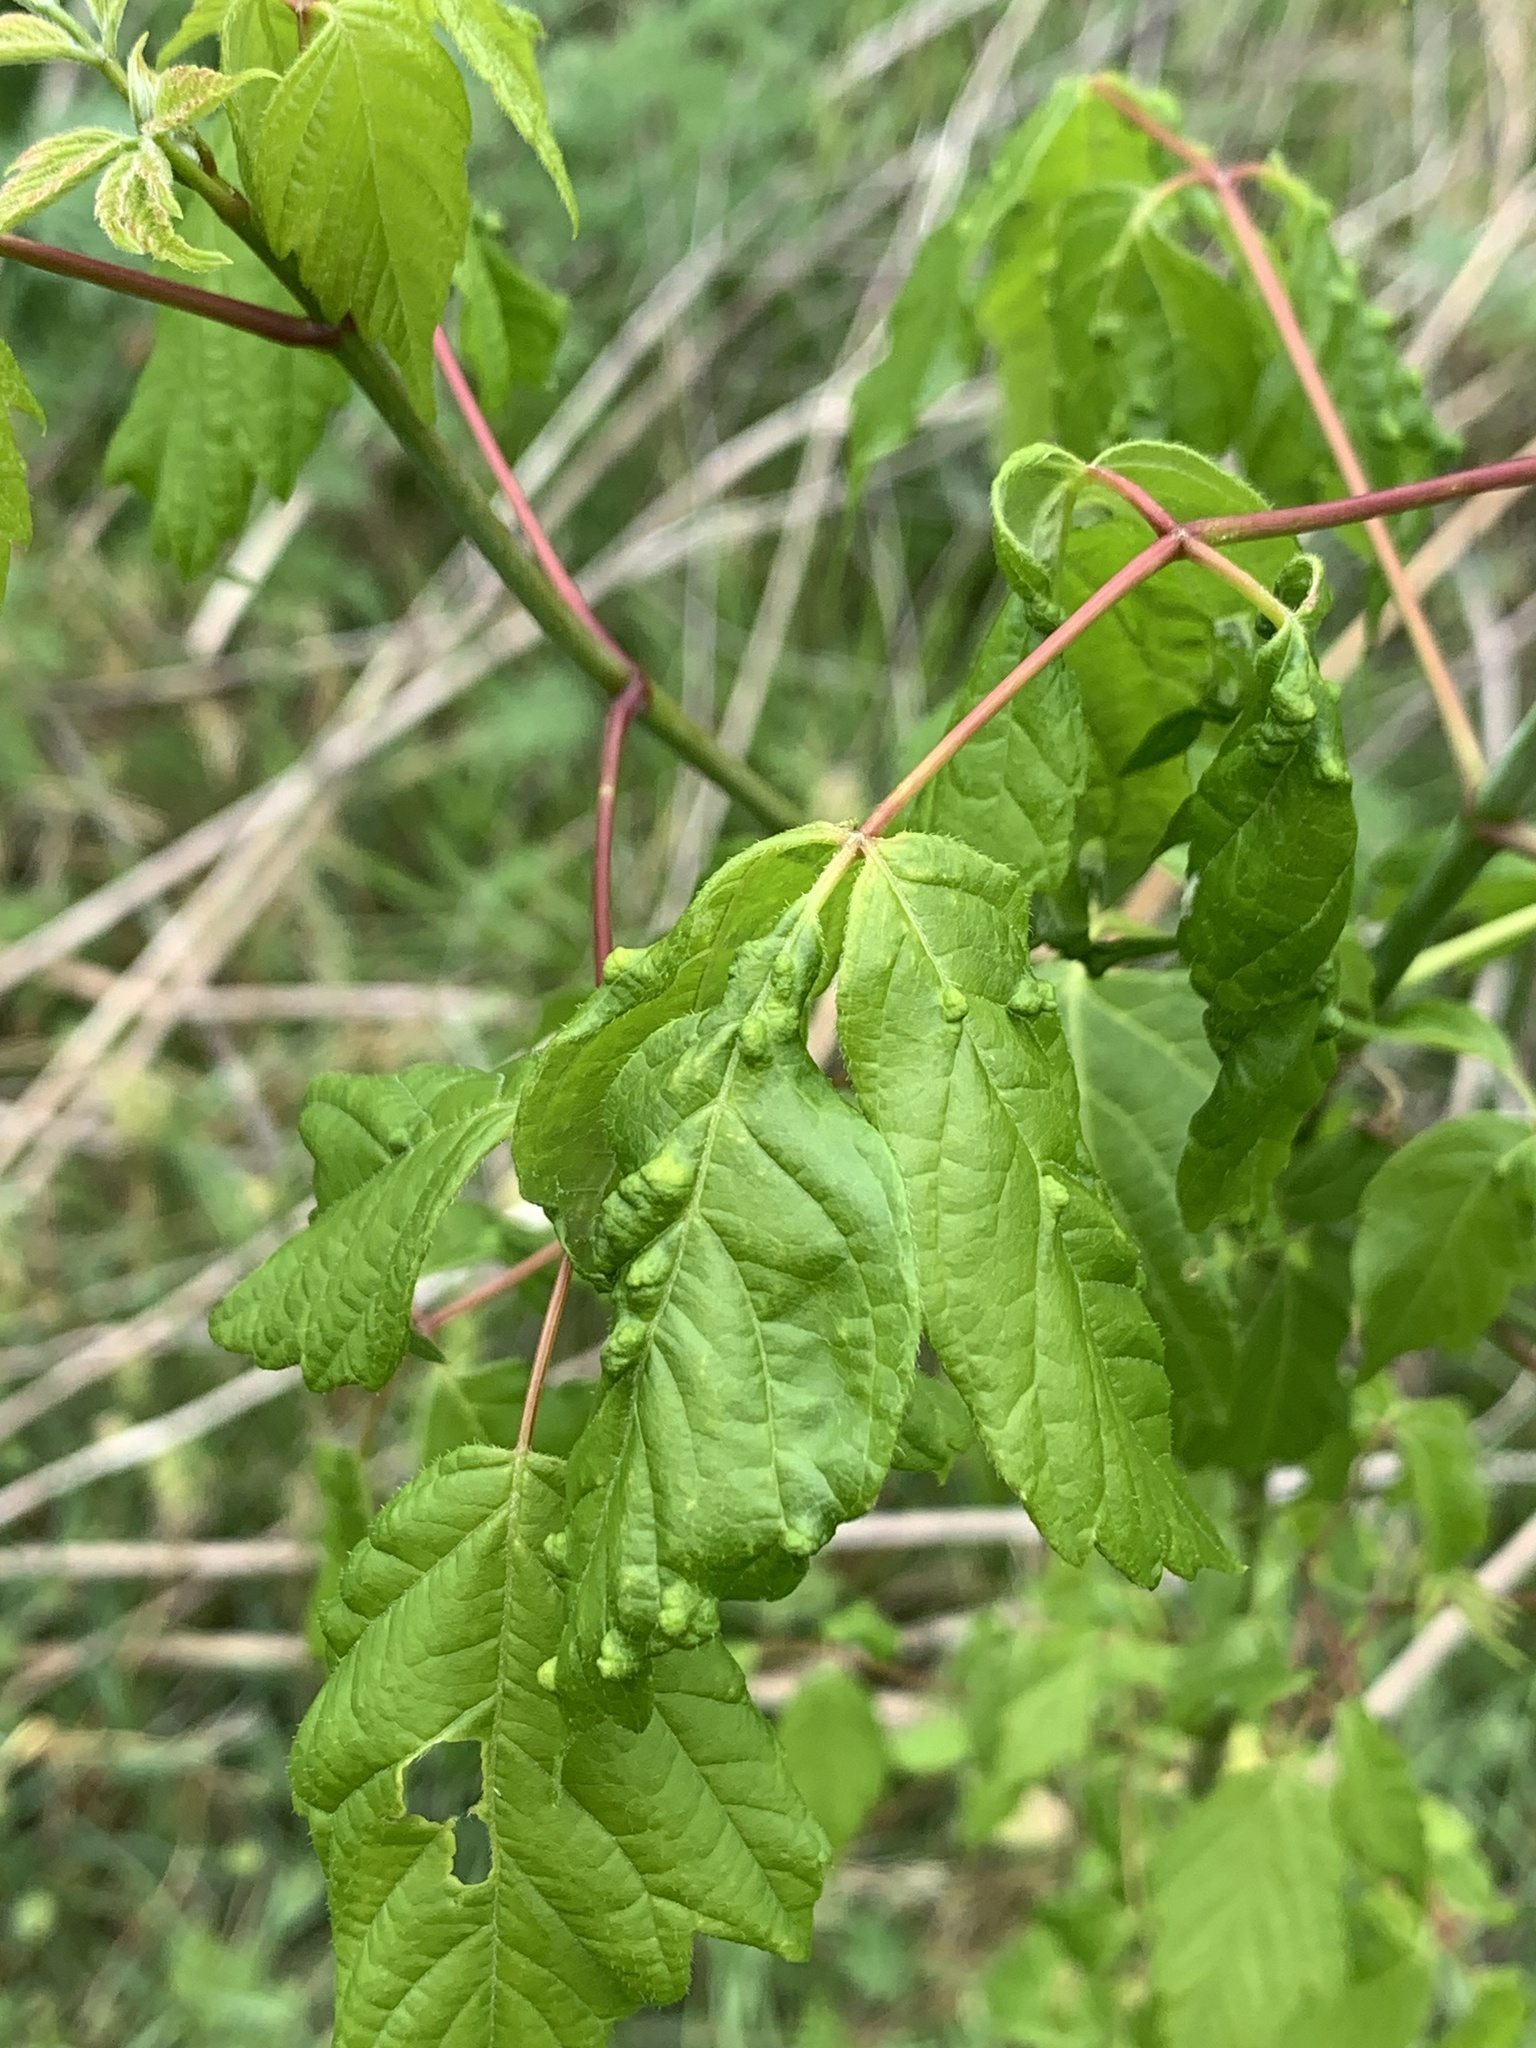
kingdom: Animalia
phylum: Arthropoda
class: Arachnida
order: Trombidiformes
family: Eriophyidae
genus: Aceria
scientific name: Aceria
